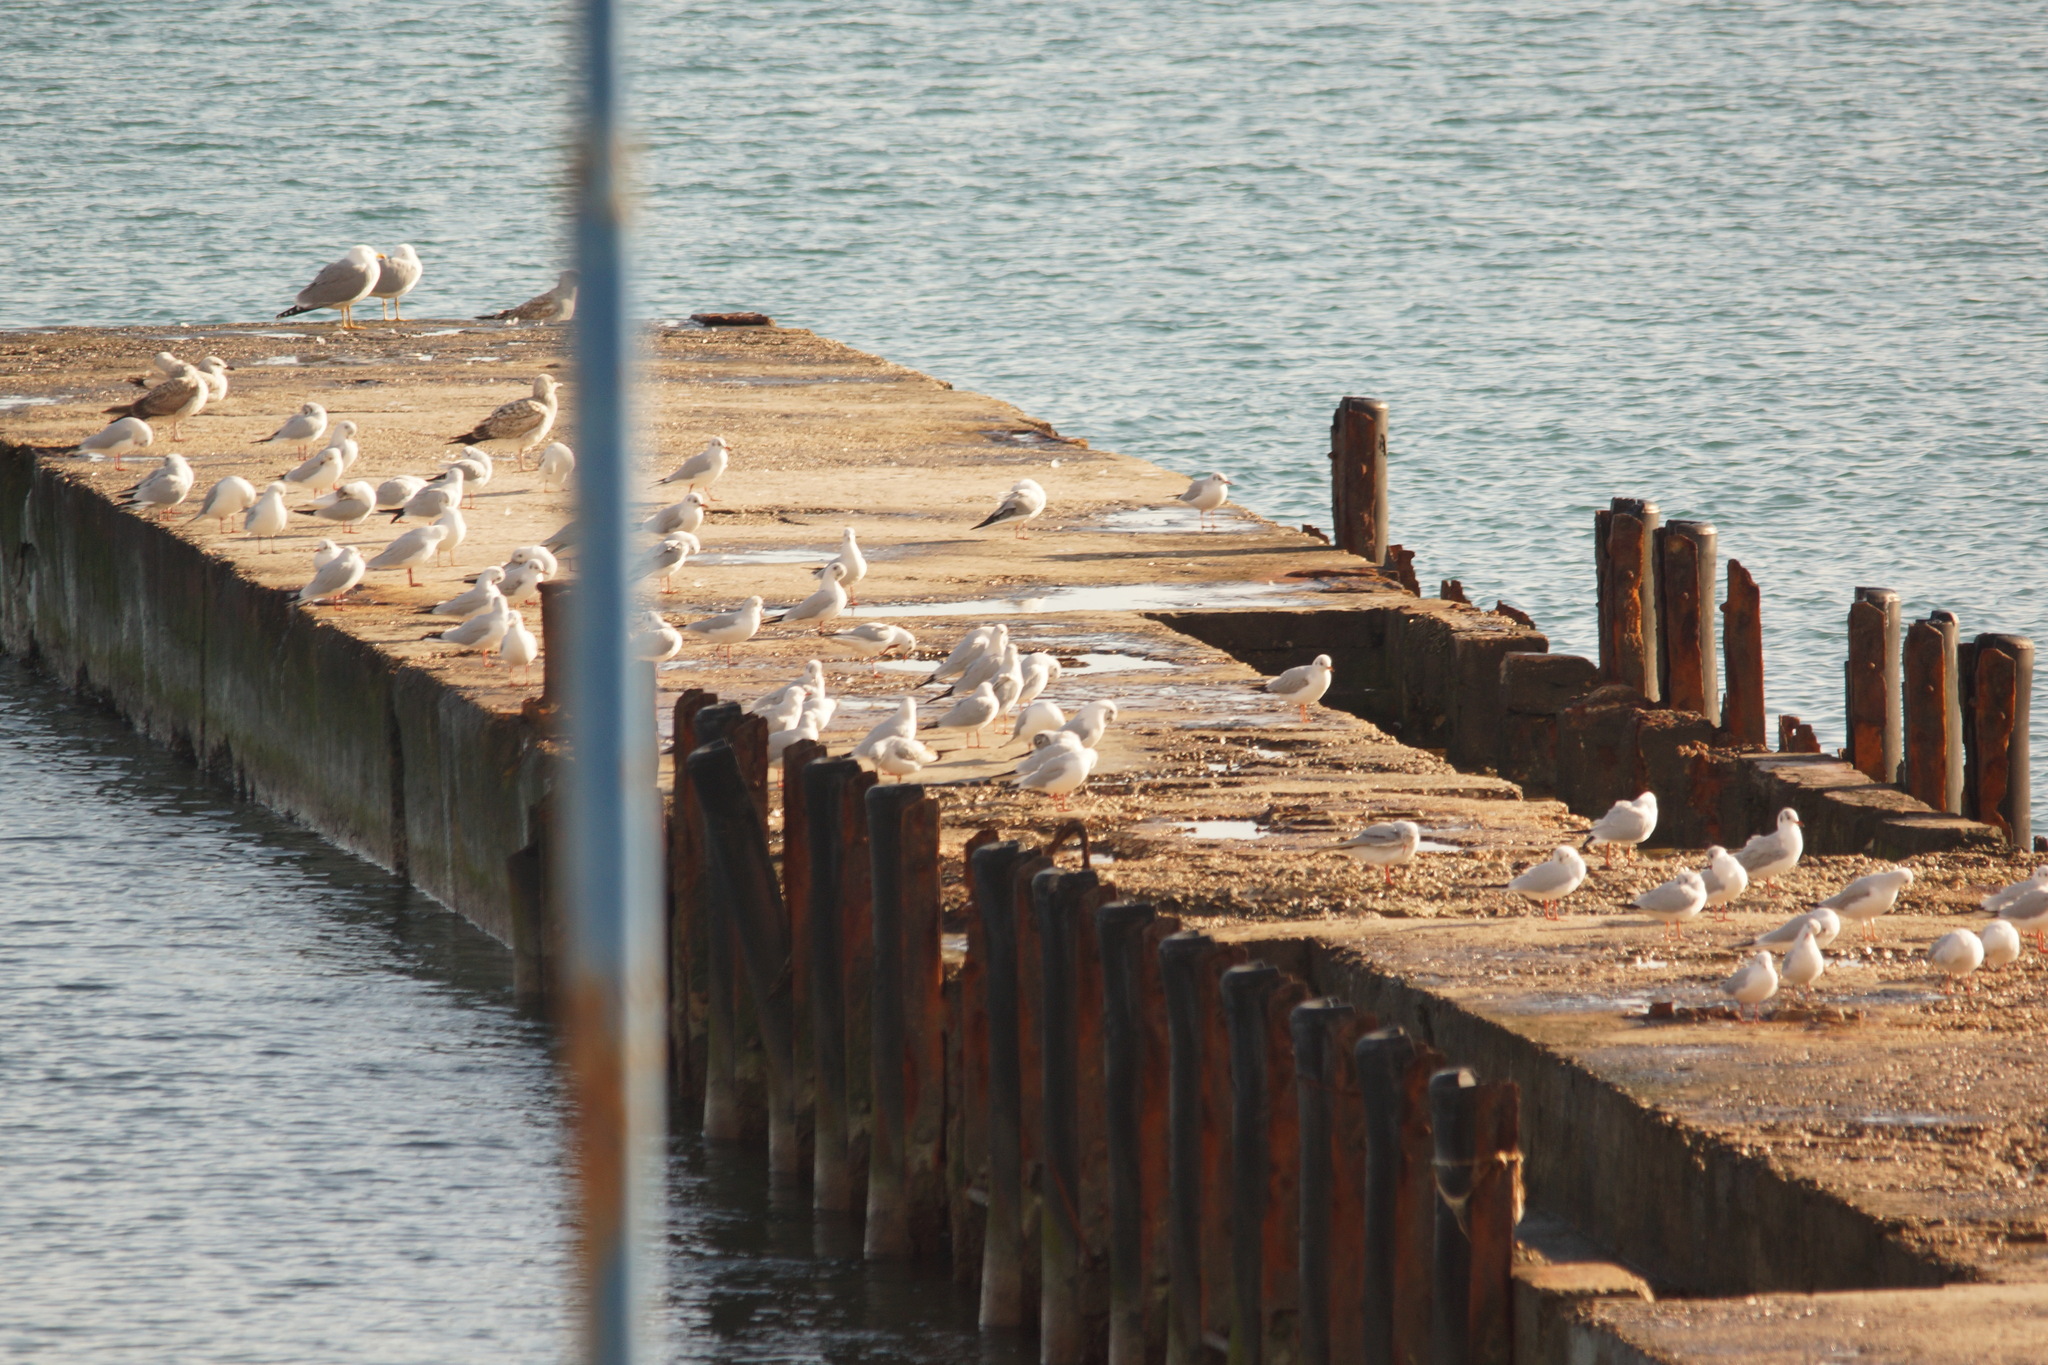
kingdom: Animalia
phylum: Chordata
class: Aves
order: Charadriiformes
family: Laridae
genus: Chroicocephalus
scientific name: Chroicocephalus ridibundus
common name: Black-headed gull
